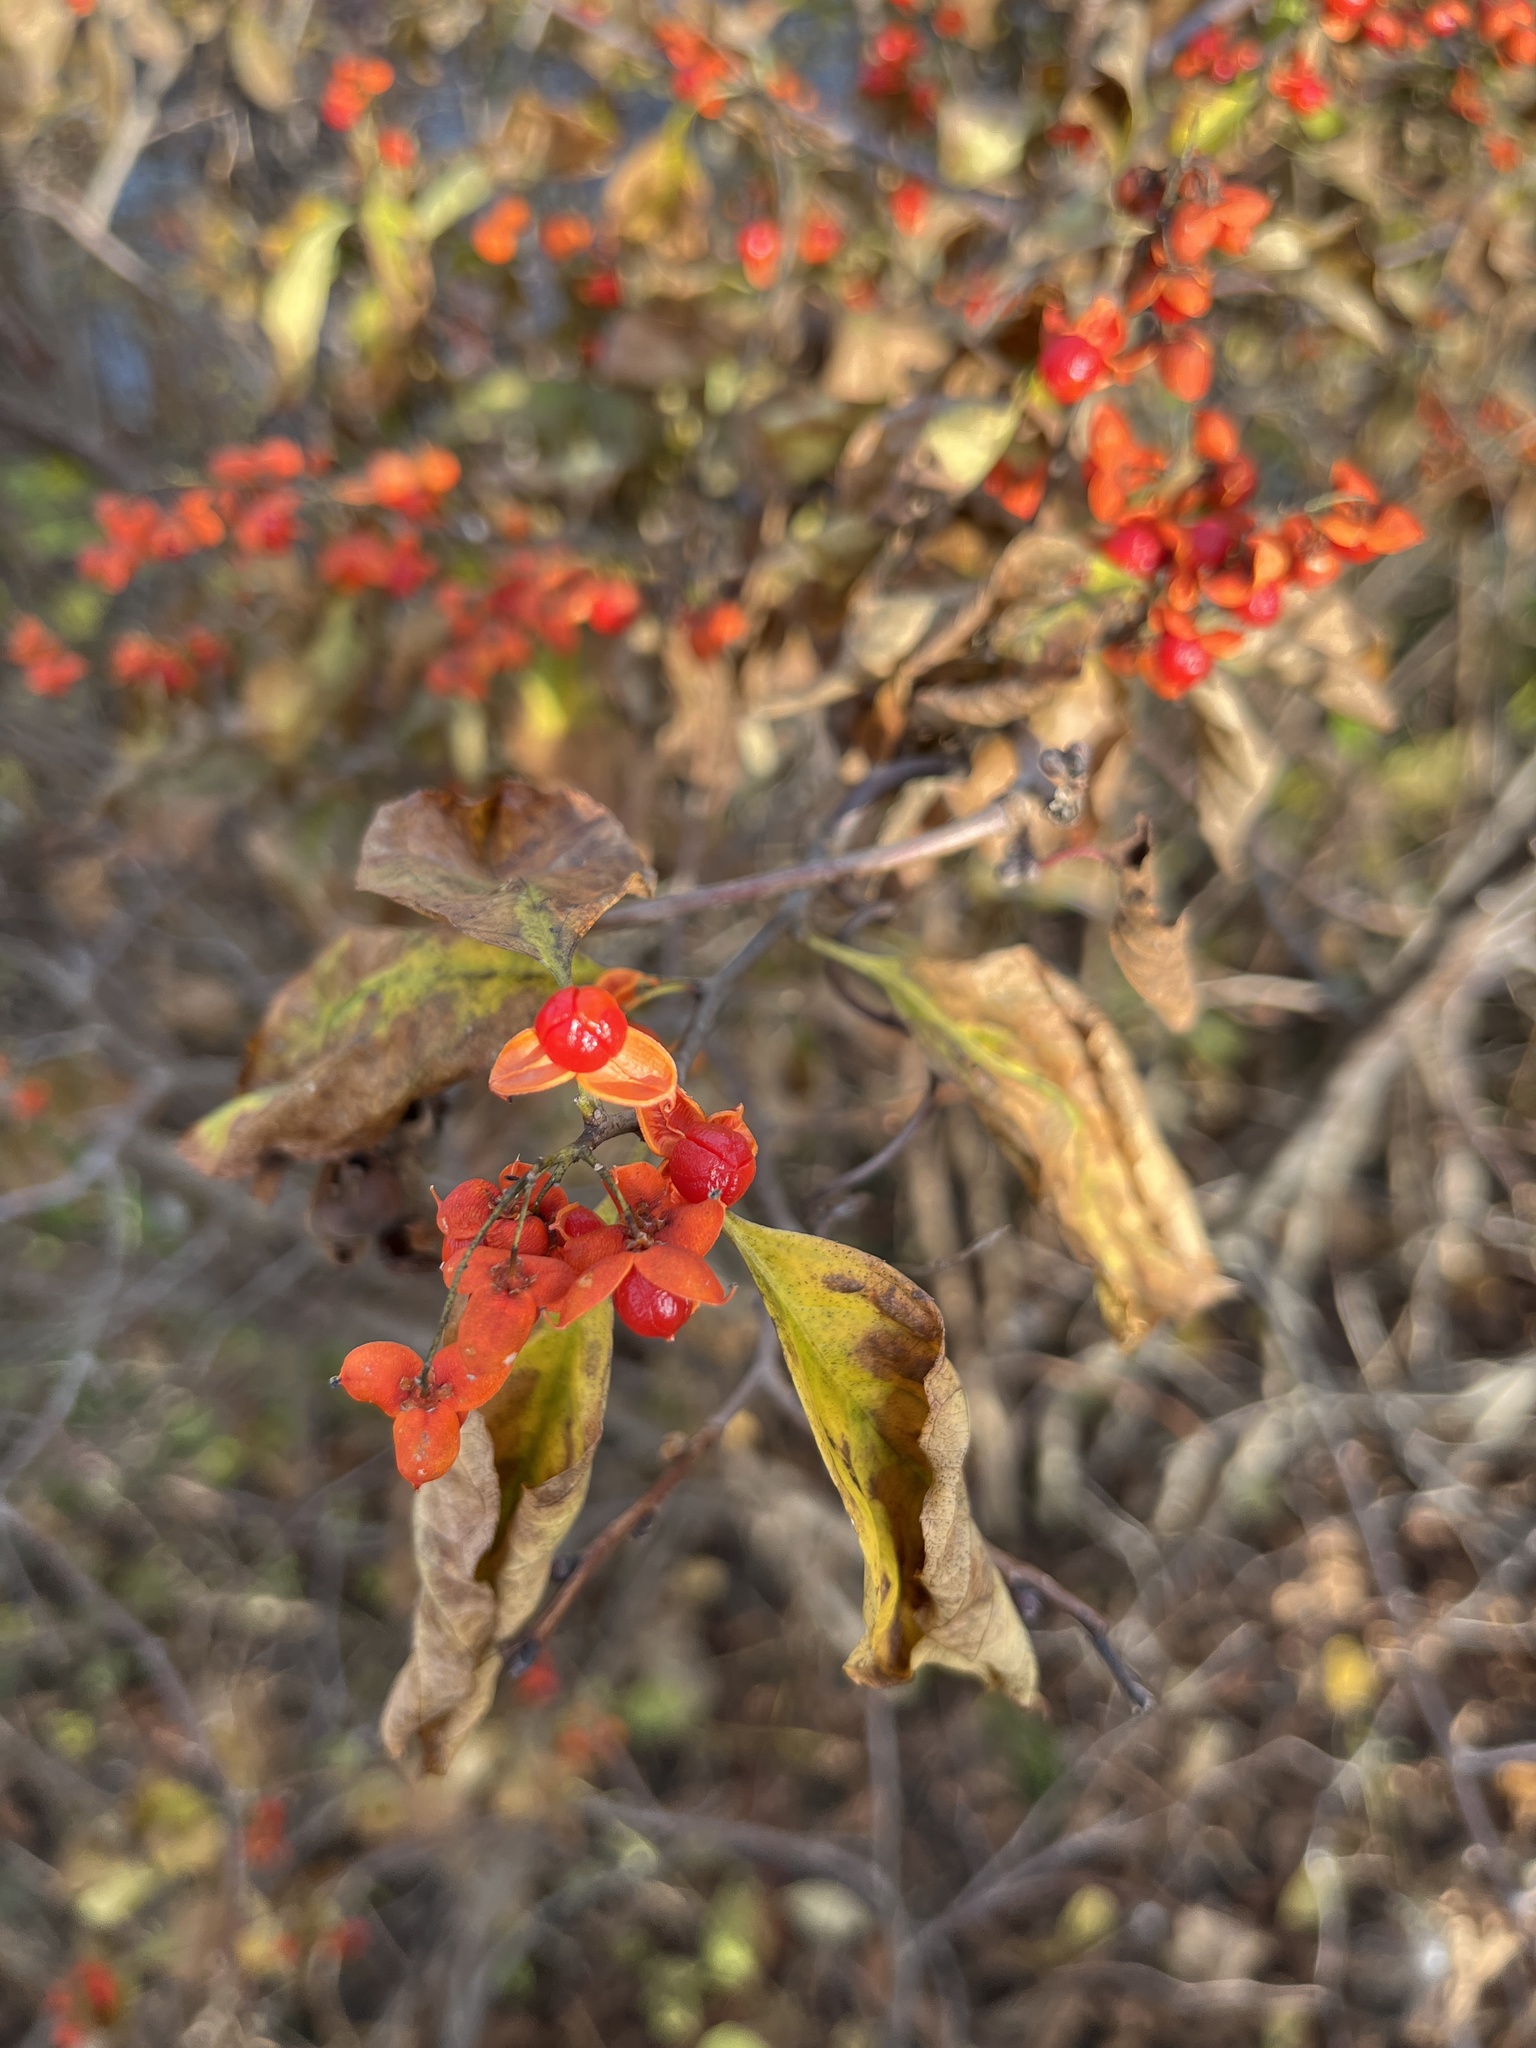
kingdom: Plantae
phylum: Tracheophyta
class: Magnoliopsida
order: Celastrales
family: Celastraceae
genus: Celastrus
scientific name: Celastrus orbiculatus
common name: Oriental bittersweet
